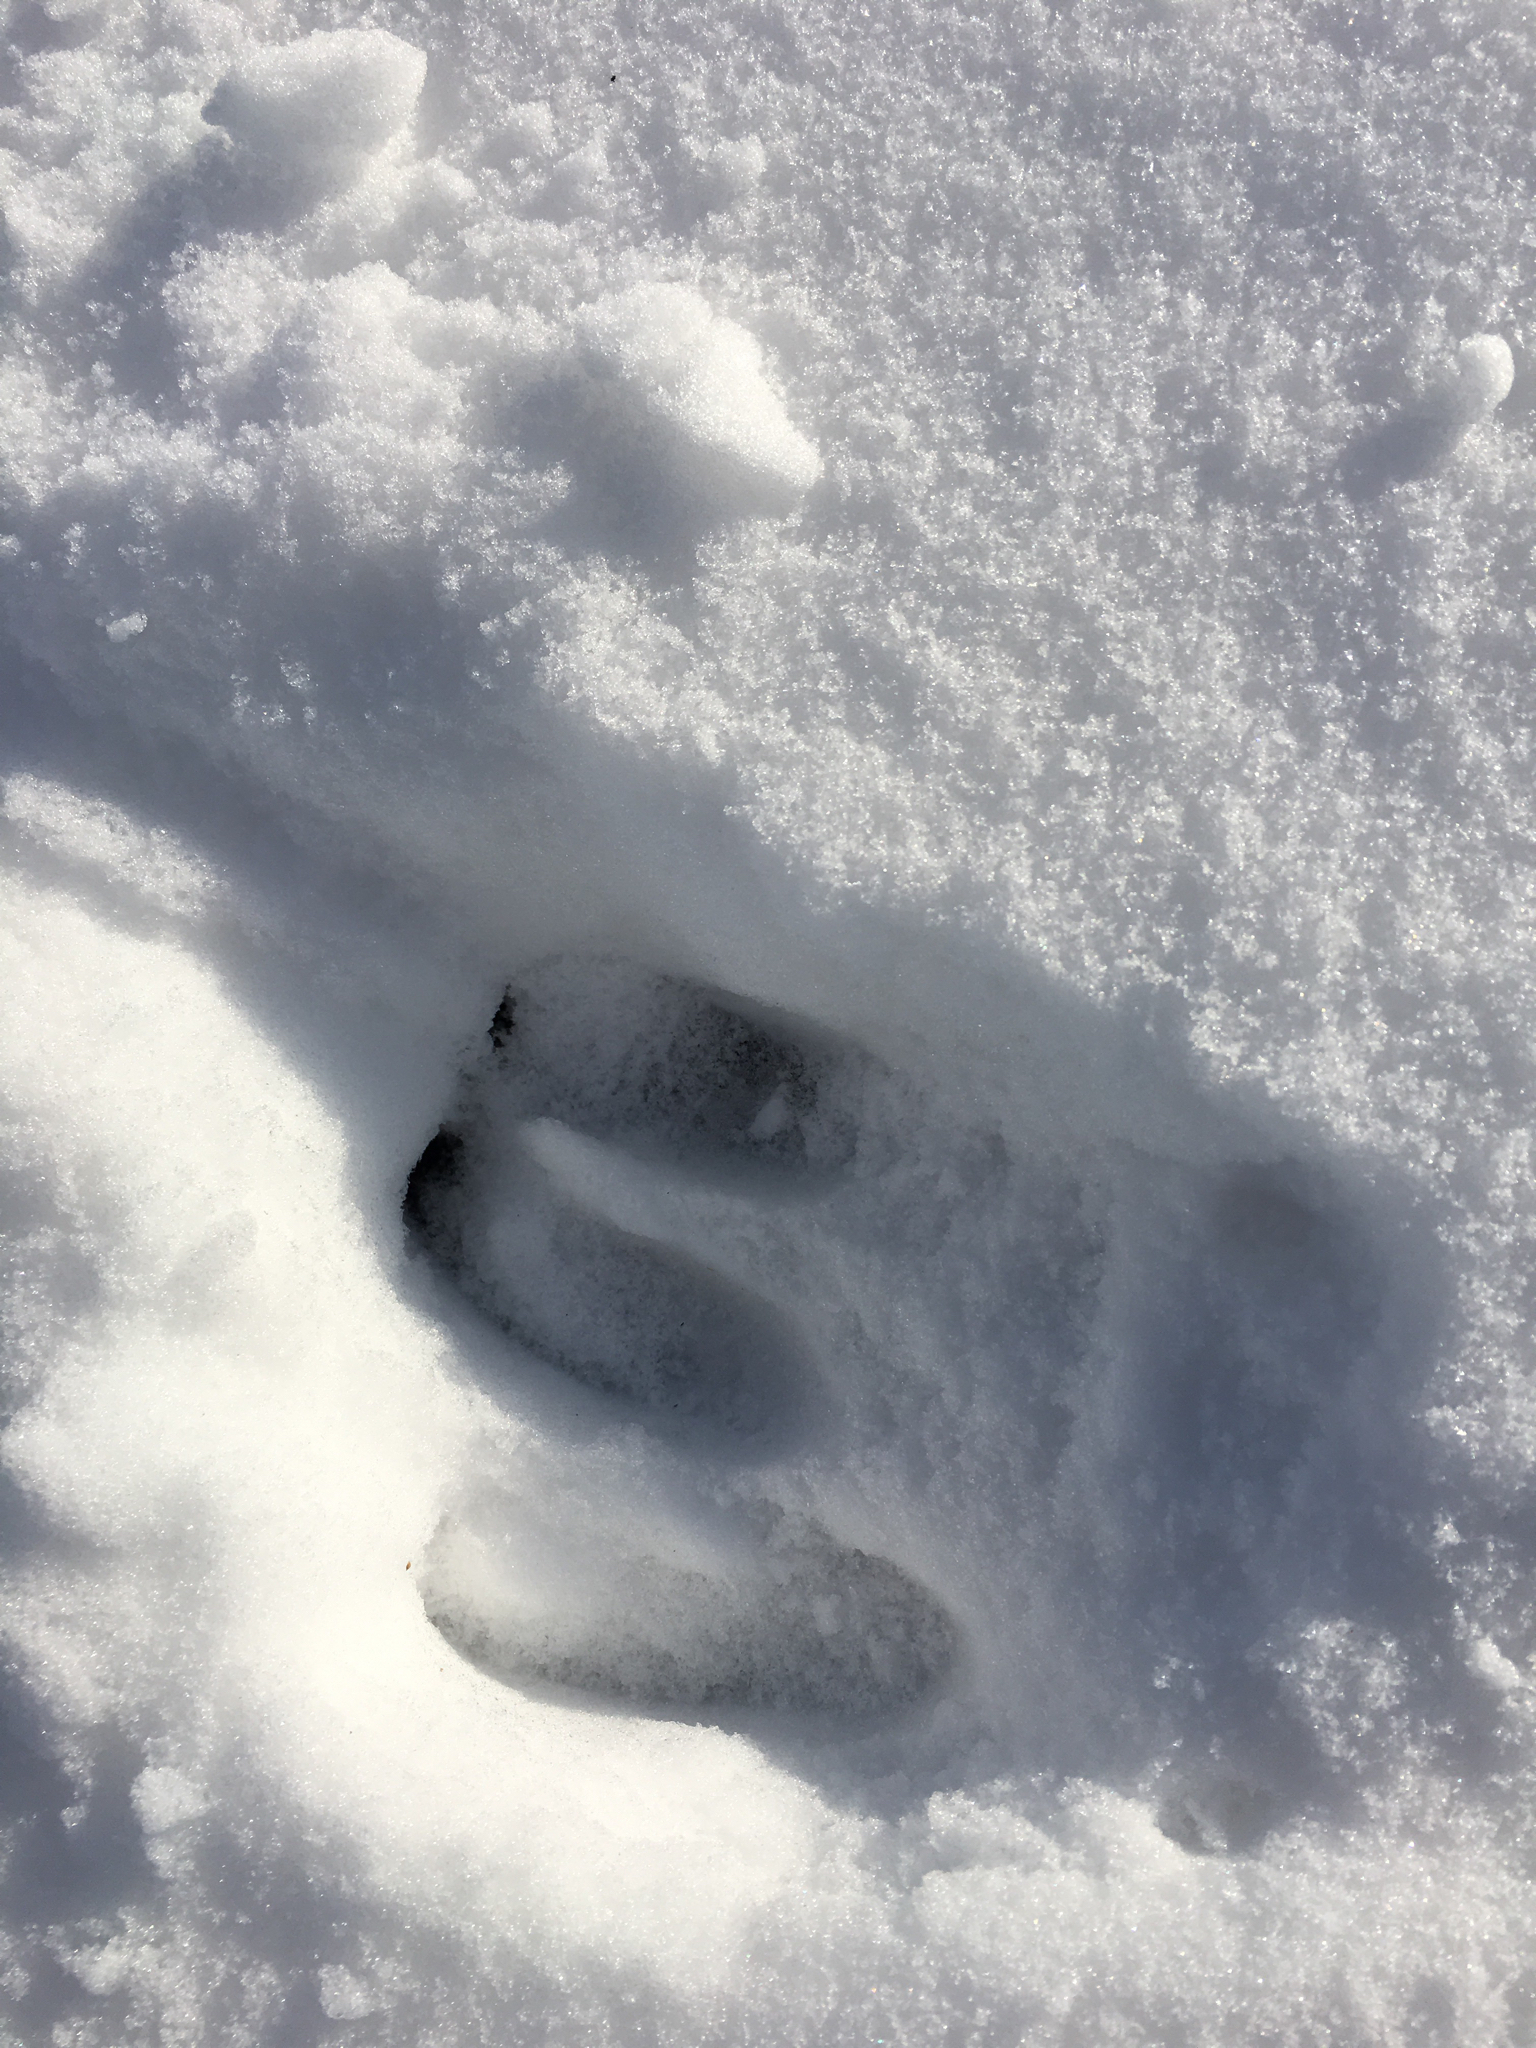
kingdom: Animalia
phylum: Chordata
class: Mammalia
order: Artiodactyla
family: Cervidae
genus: Odocoileus
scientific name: Odocoileus virginianus
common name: White-tailed deer
